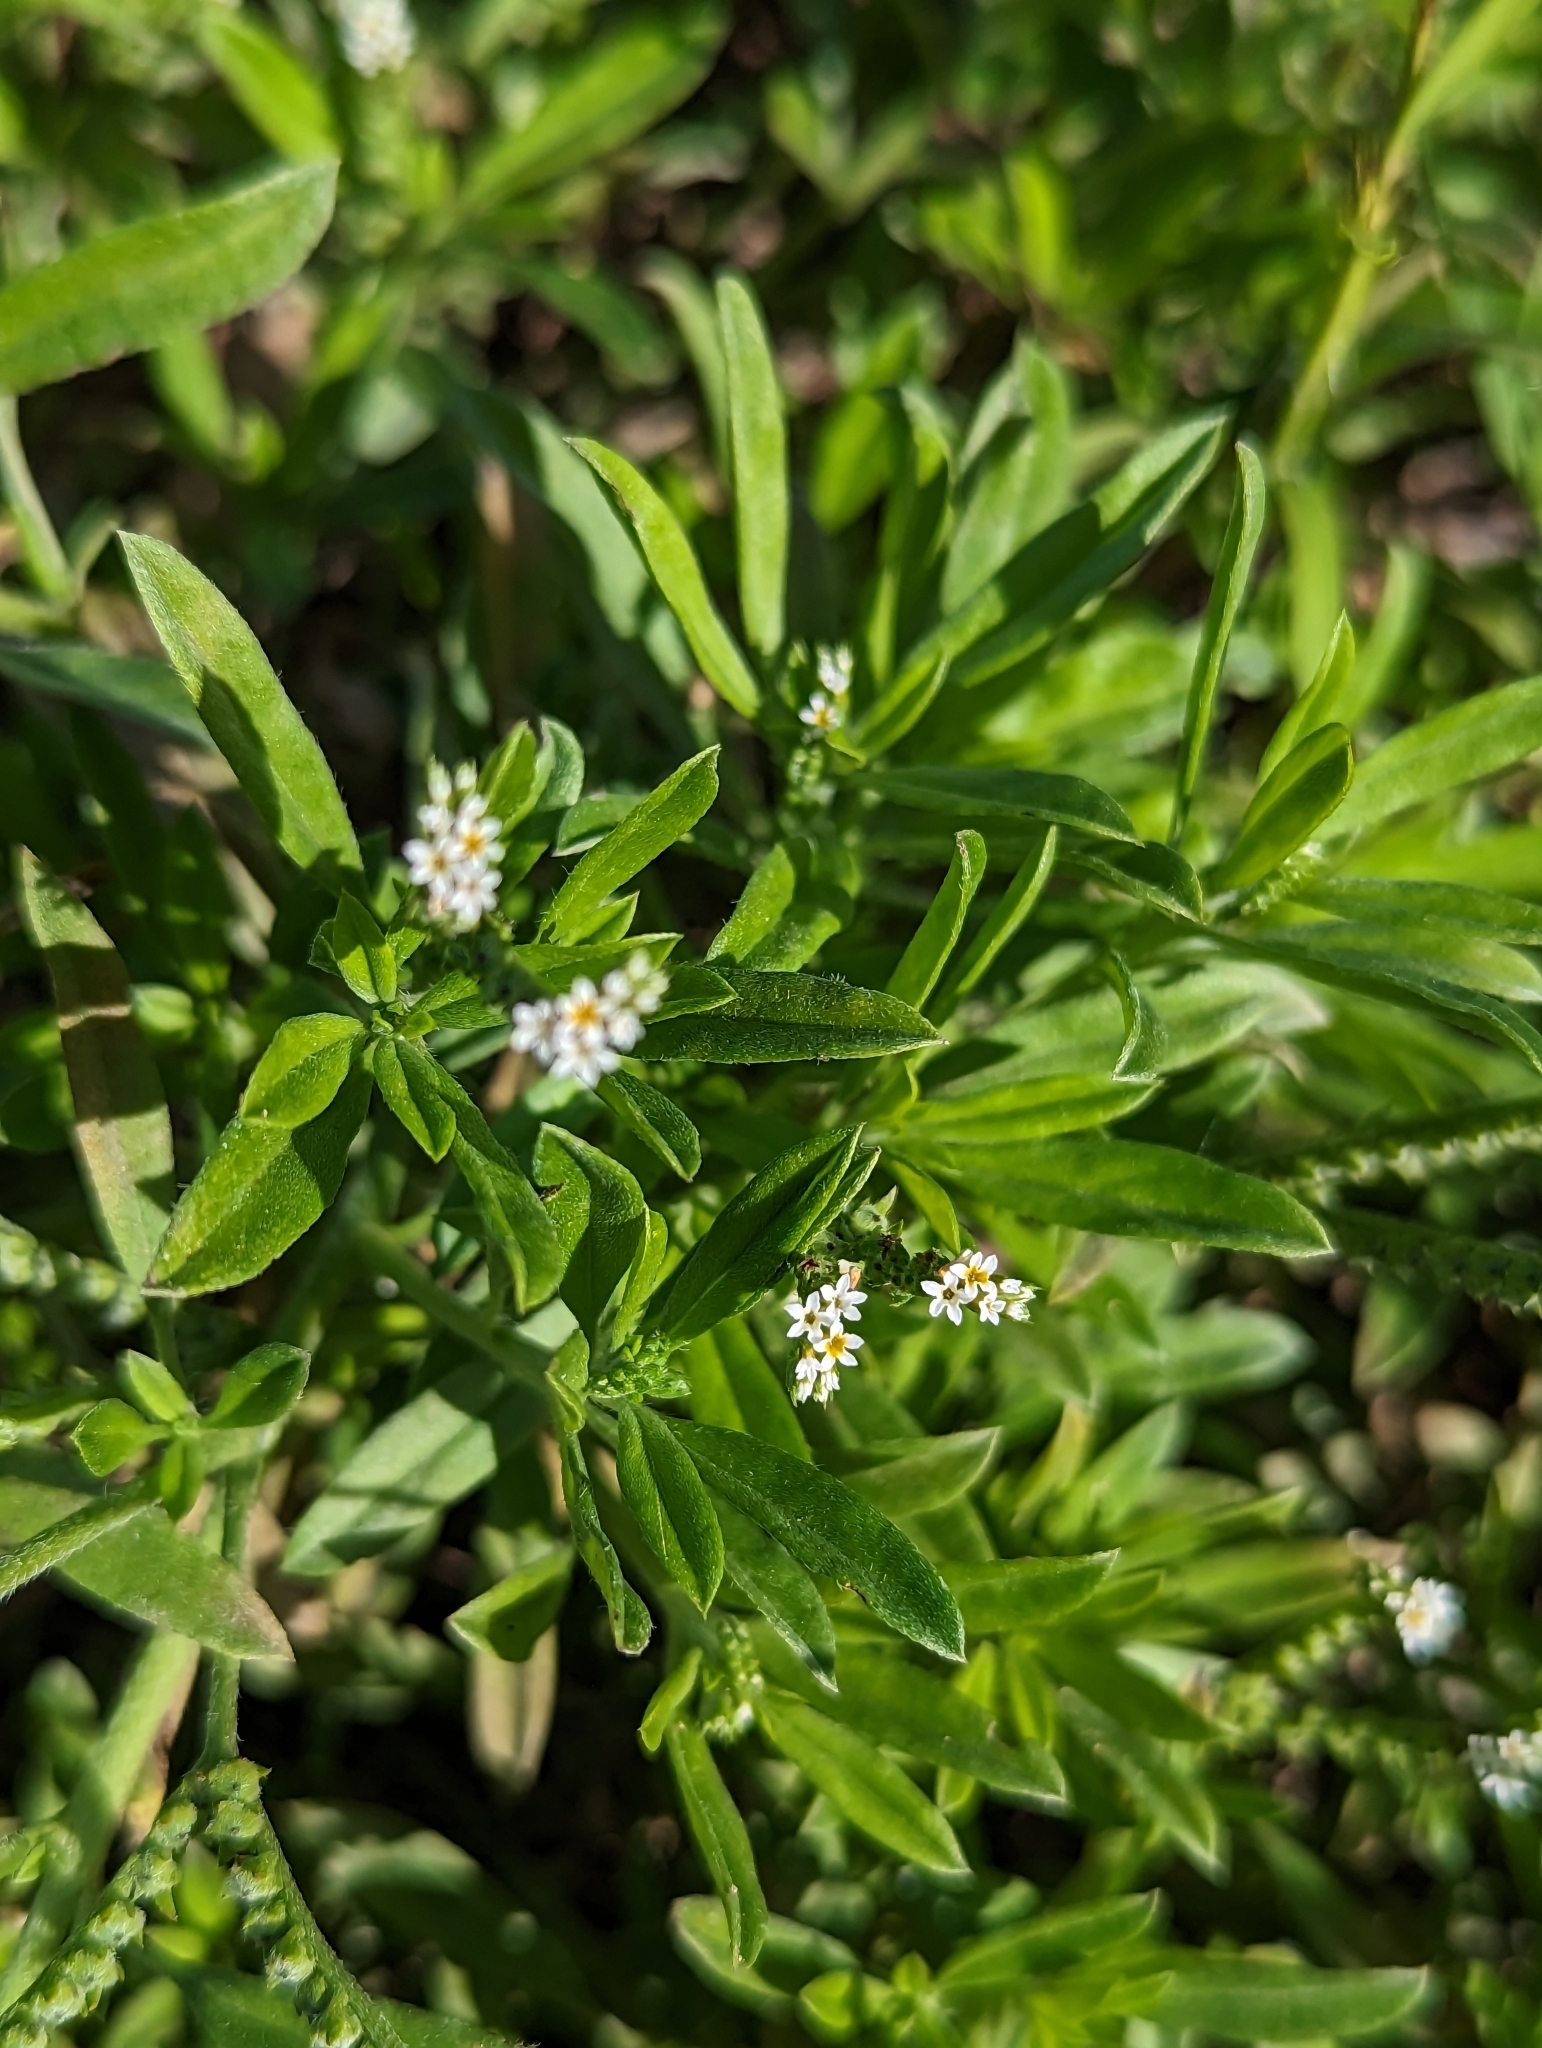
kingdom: Plantae
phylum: Tracheophyta
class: Magnoliopsida
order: Boraginales
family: Heliotropiaceae
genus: Euploca
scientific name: Euploca procumbens
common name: Fourspike heliotrope
